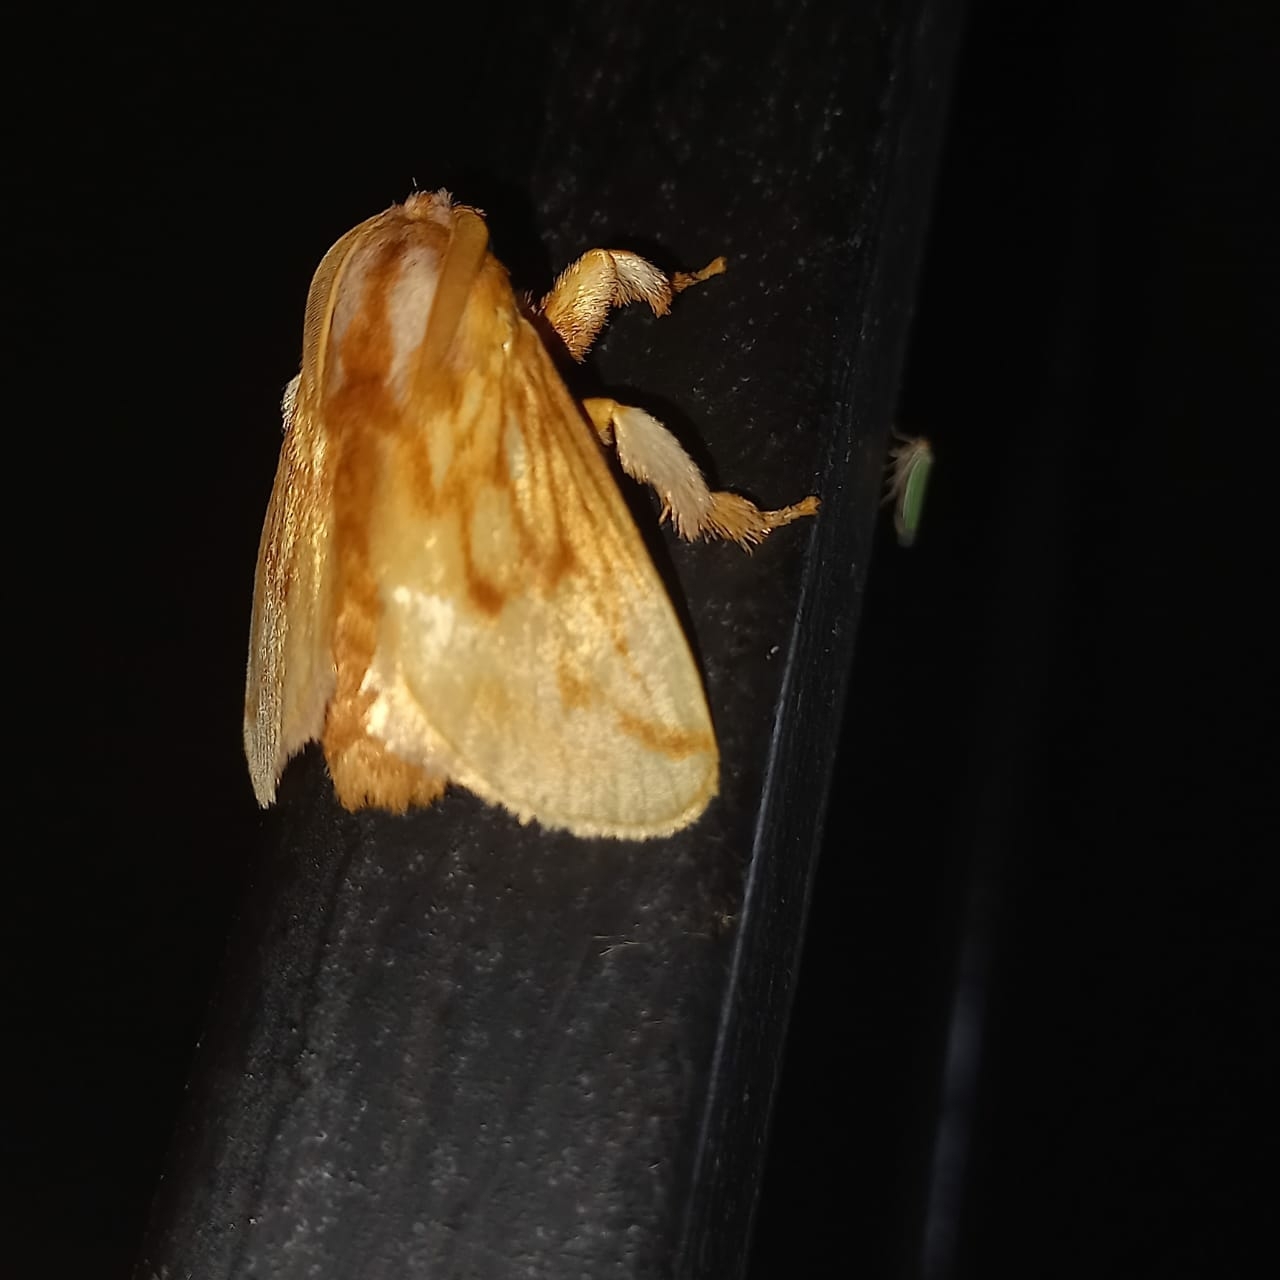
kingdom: Animalia
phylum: Arthropoda
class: Insecta
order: Lepidoptera
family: Limacodidae
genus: Perola
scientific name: Perola sericea
